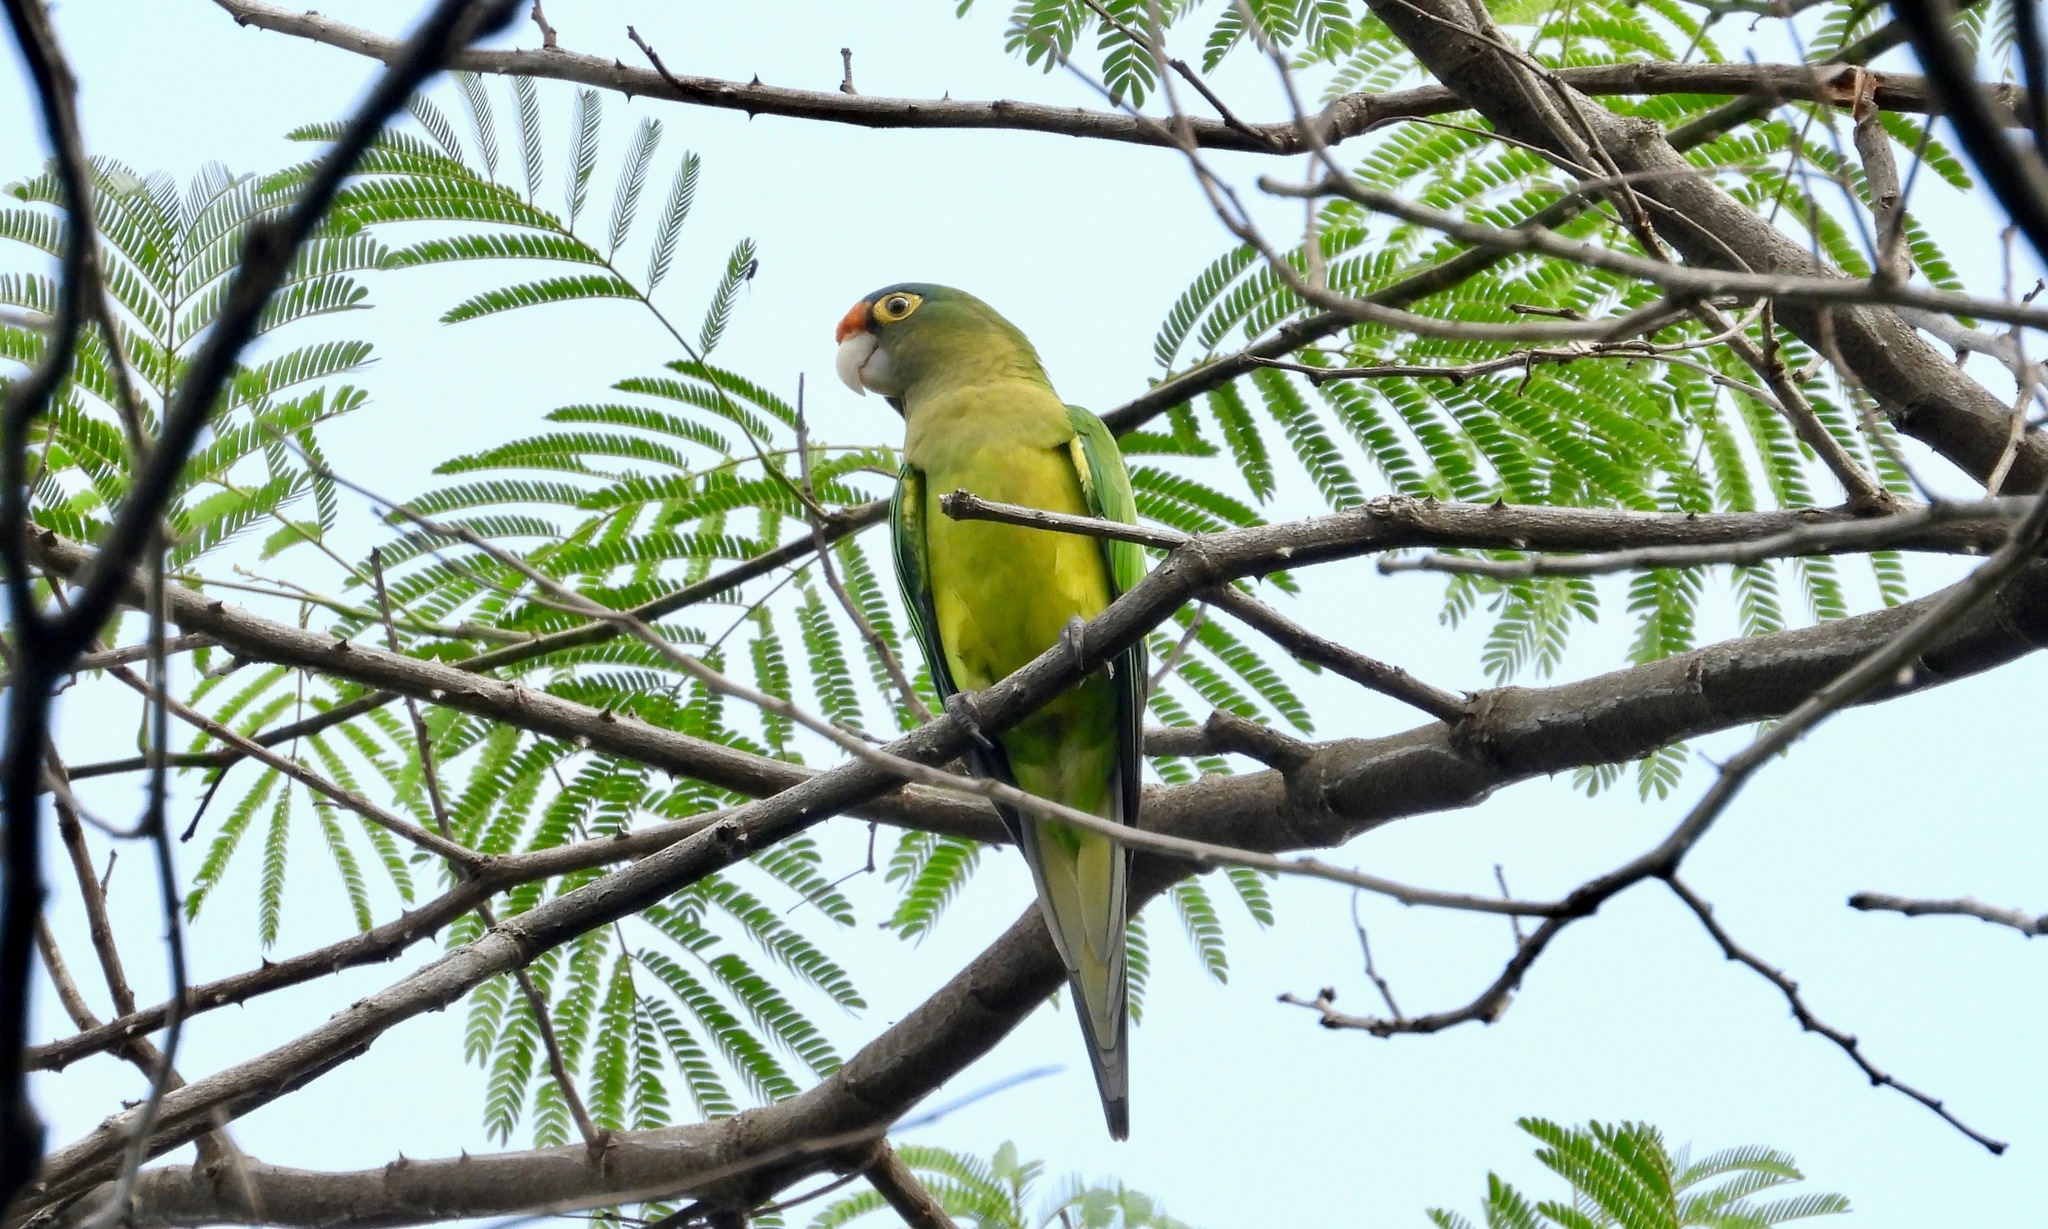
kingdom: Animalia
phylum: Chordata
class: Aves
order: Psittaciformes
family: Psittacidae
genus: Aratinga
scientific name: Aratinga canicularis
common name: Orange-fronted parakeet
